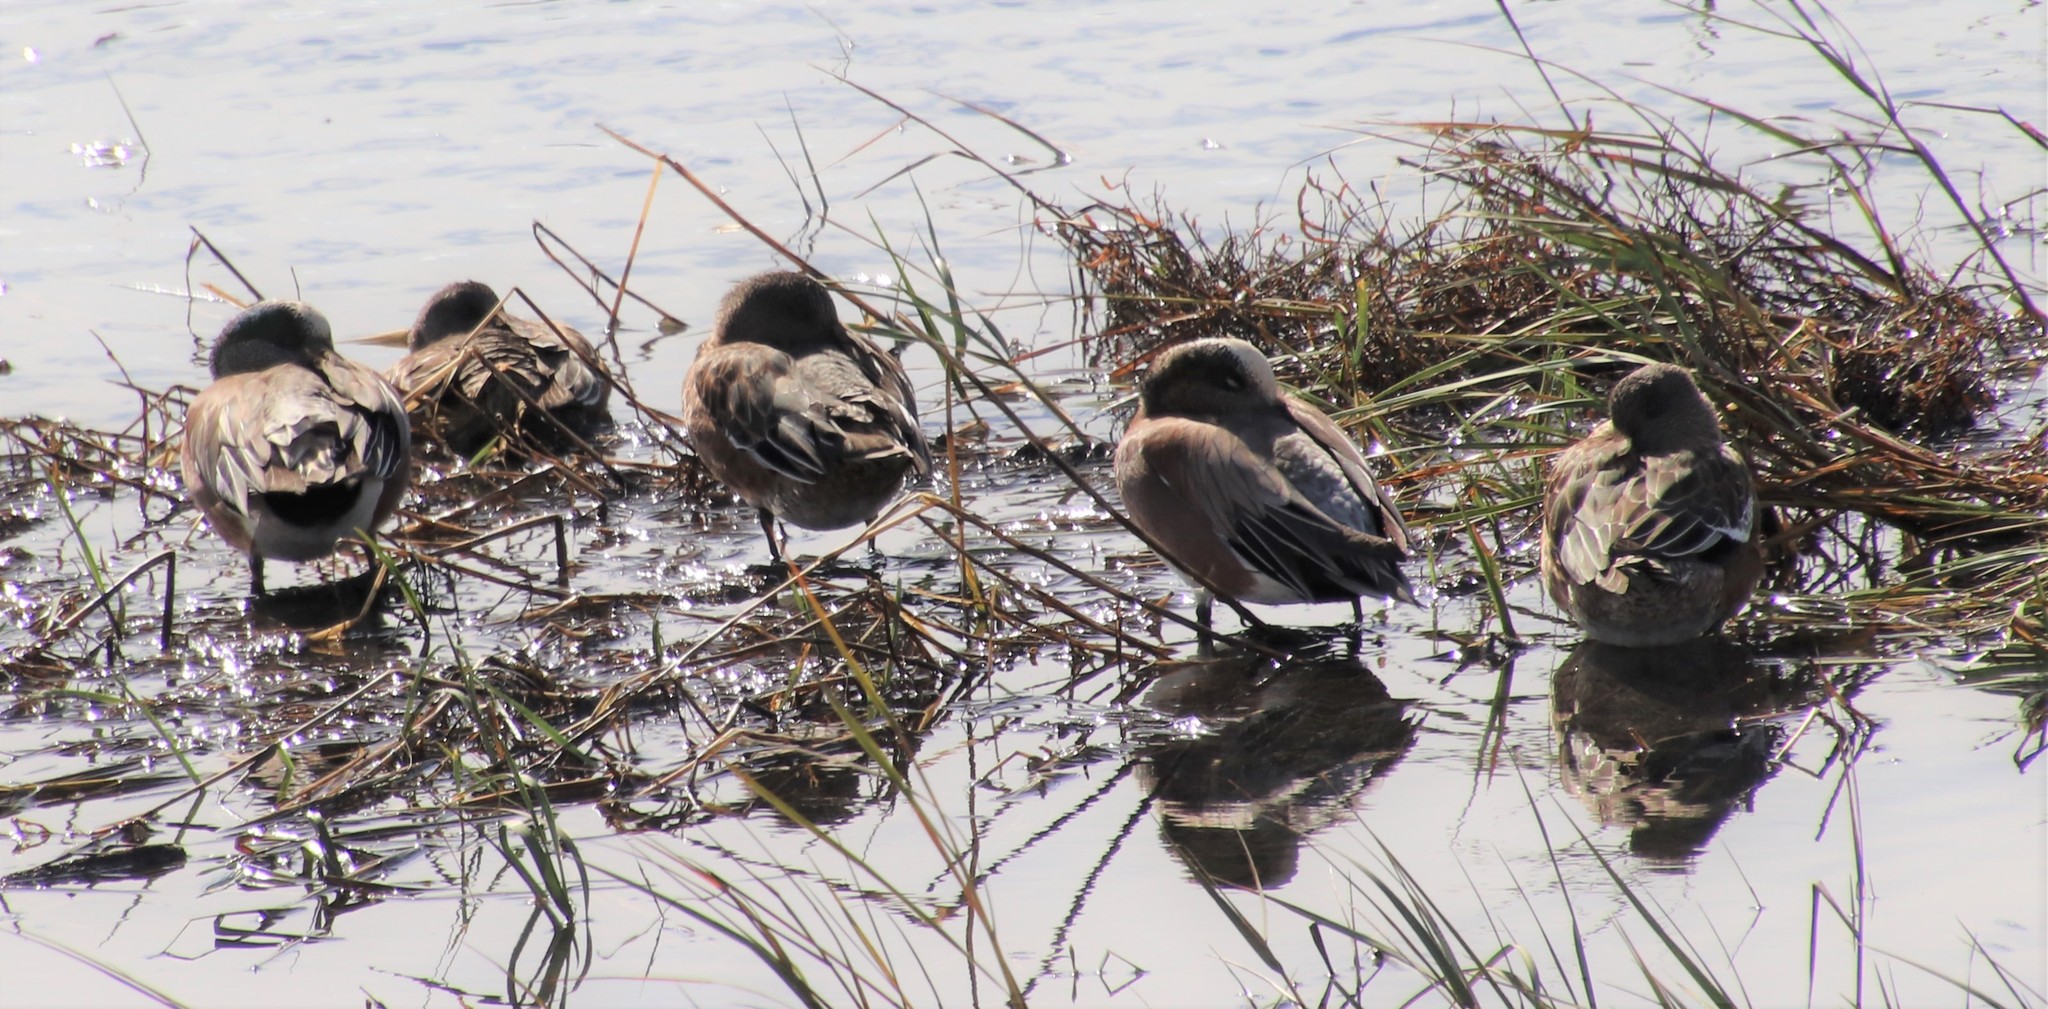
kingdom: Animalia
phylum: Chordata
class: Aves
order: Anseriformes
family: Anatidae
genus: Mareca
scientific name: Mareca americana
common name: American wigeon
